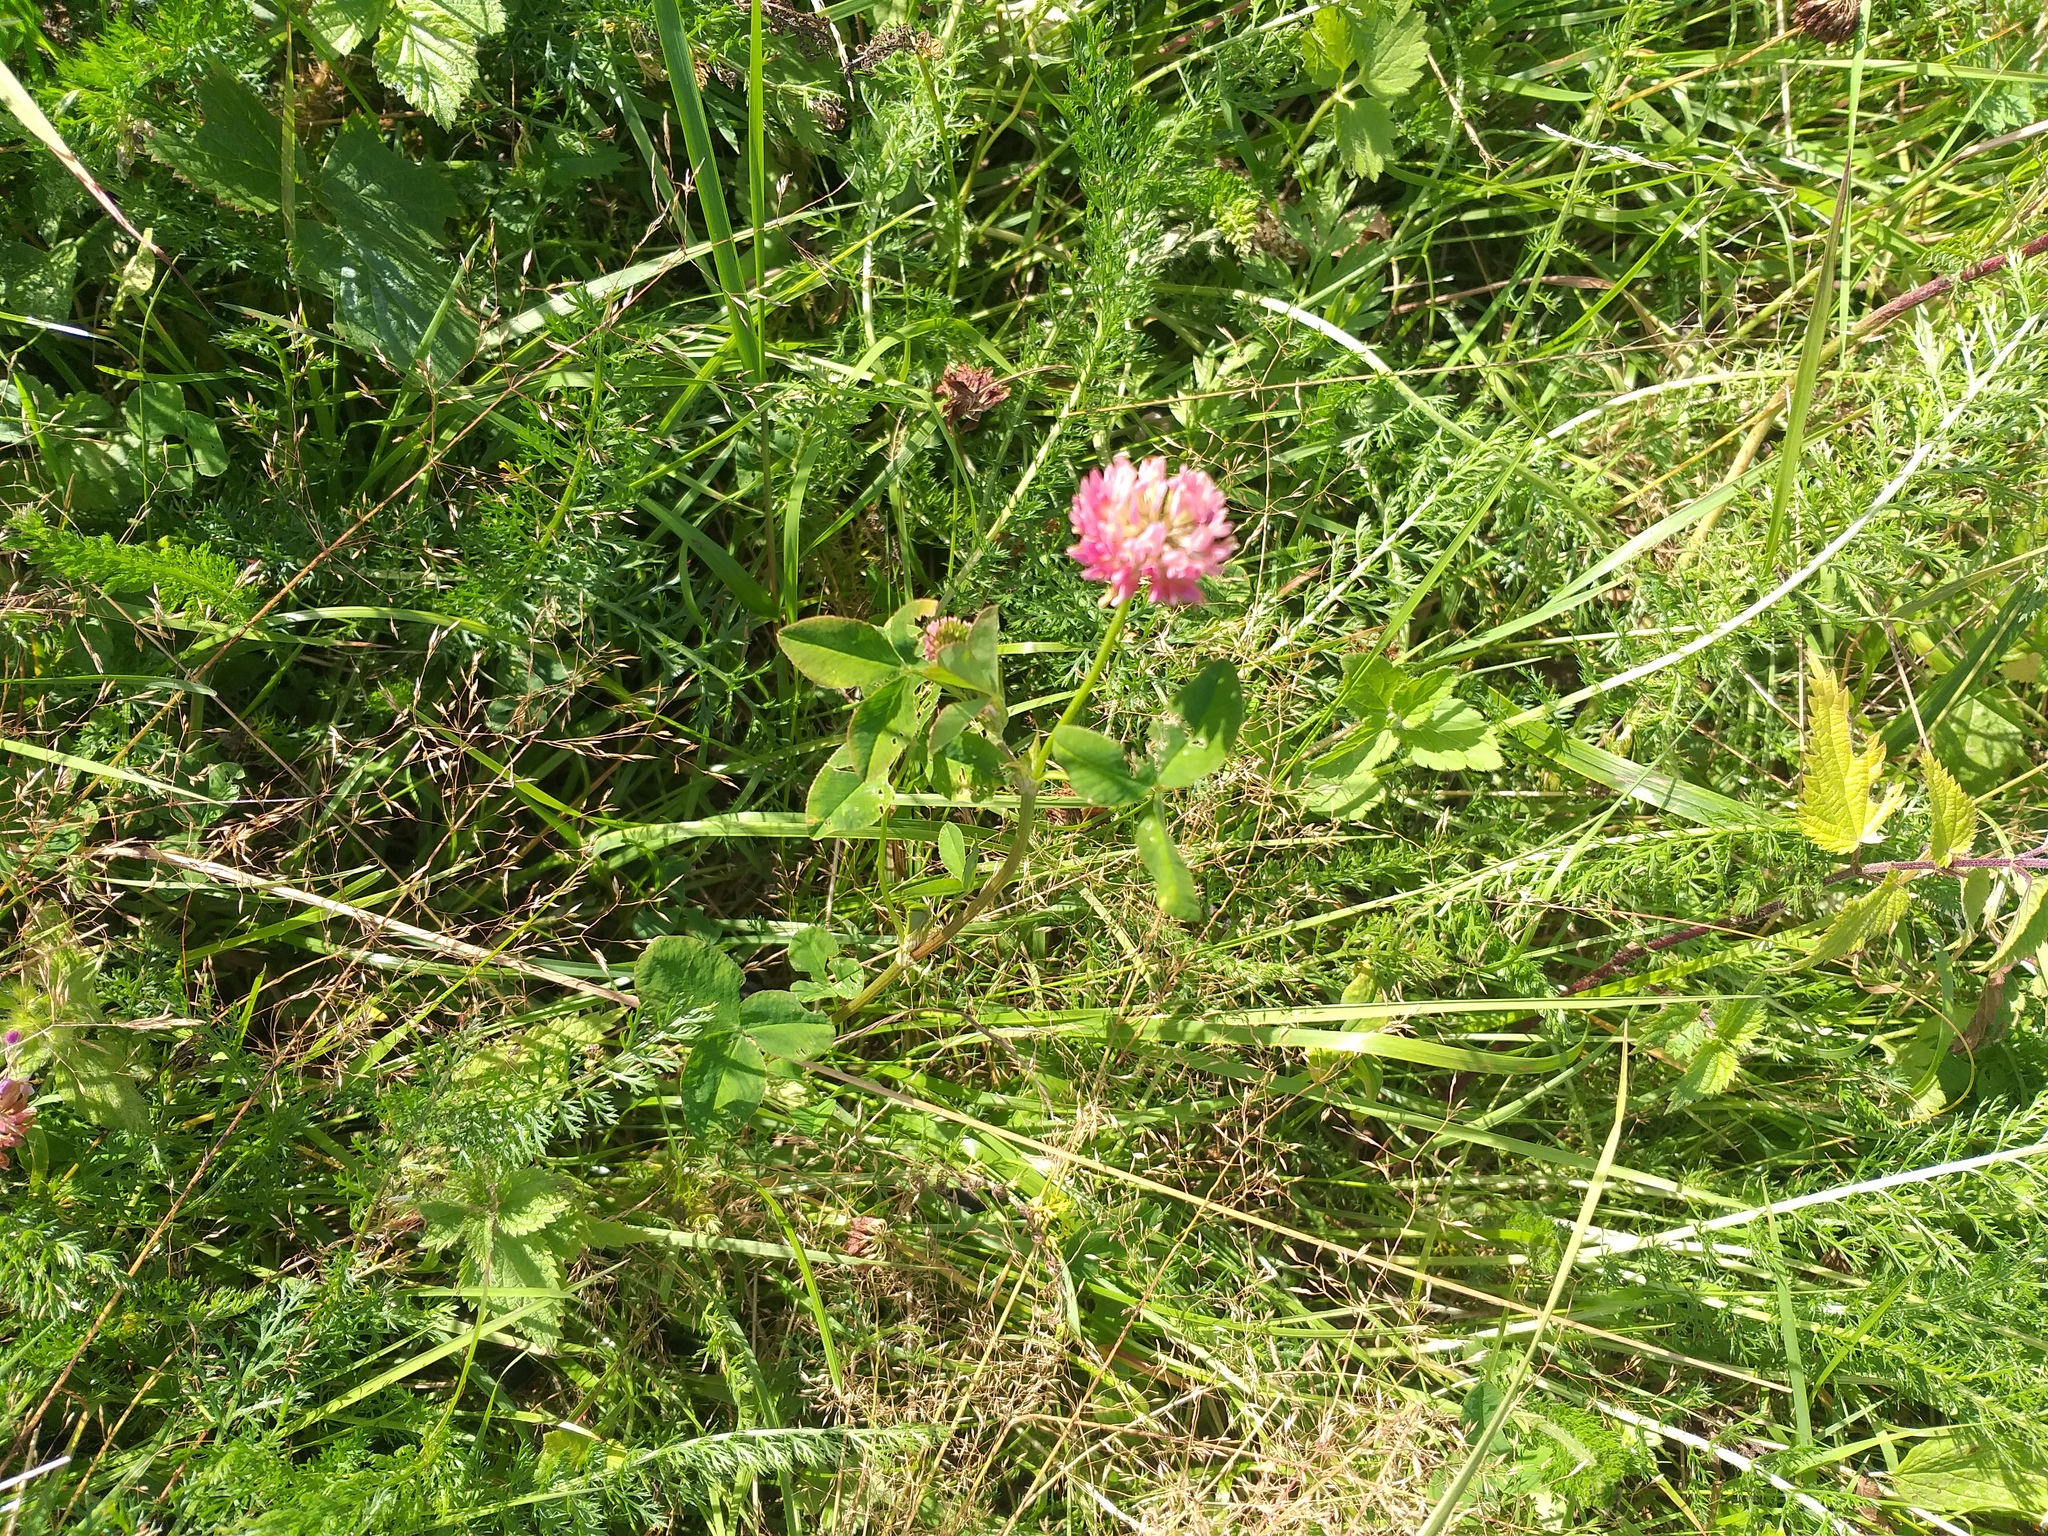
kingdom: Plantae
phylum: Tracheophyta
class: Magnoliopsida
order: Fabales
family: Fabaceae
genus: Trifolium
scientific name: Trifolium hybridum
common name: Alsike clover
